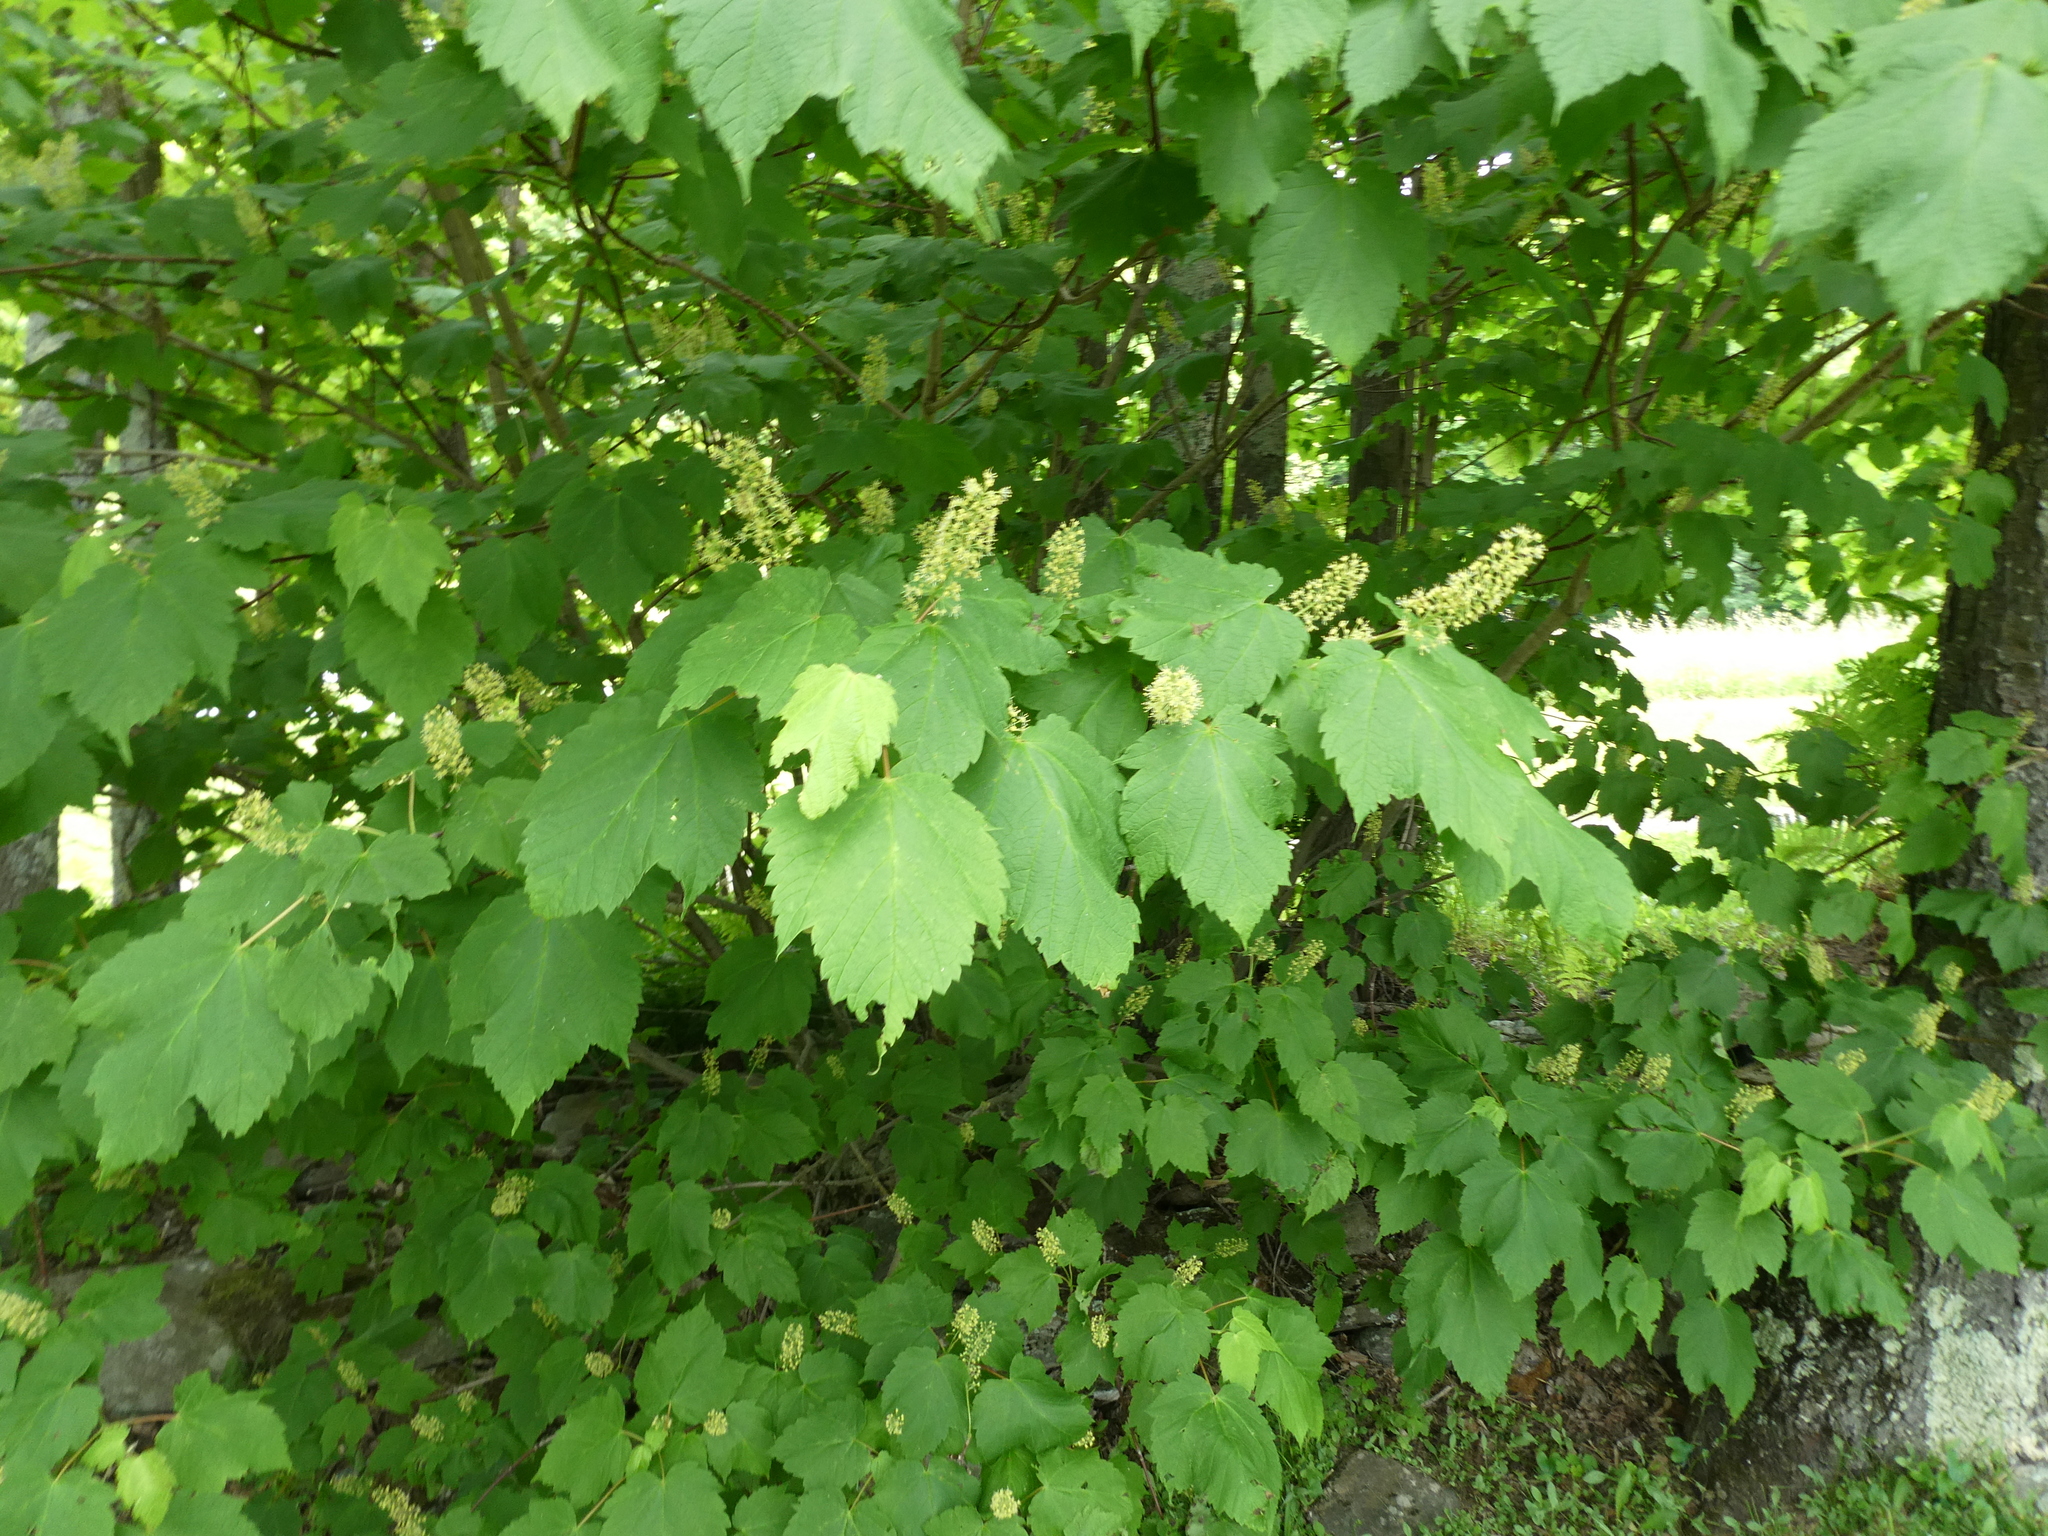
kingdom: Plantae
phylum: Tracheophyta
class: Magnoliopsida
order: Sapindales
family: Sapindaceae
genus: Acer
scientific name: Acer spicatum
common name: Mountain maple
